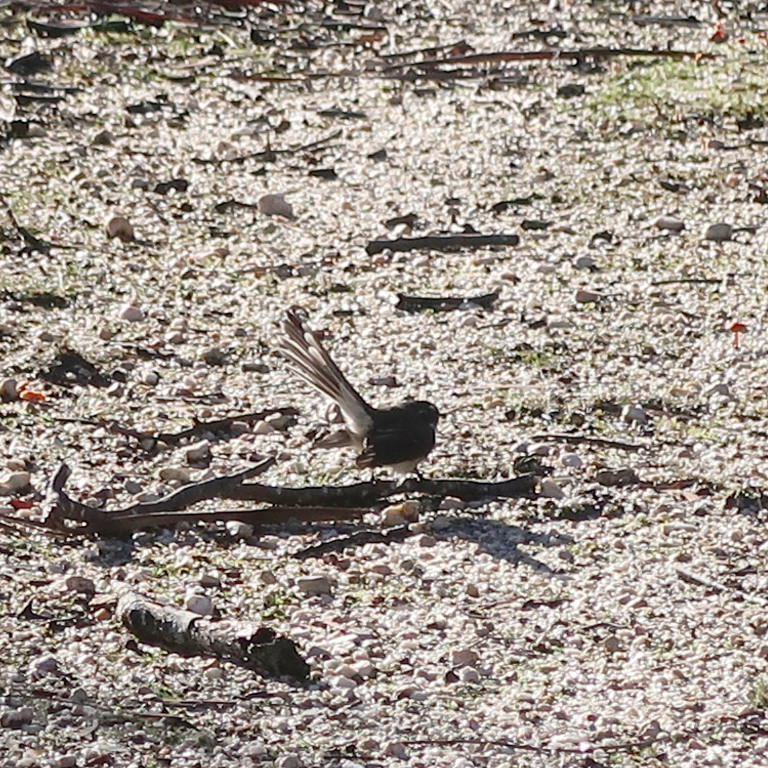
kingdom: Animalia
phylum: Chordata
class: Aves
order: Passeriformes
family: Rhipiduridae
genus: Rhipidura
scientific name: Rhipidura albiscapa
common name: Grey fantail
